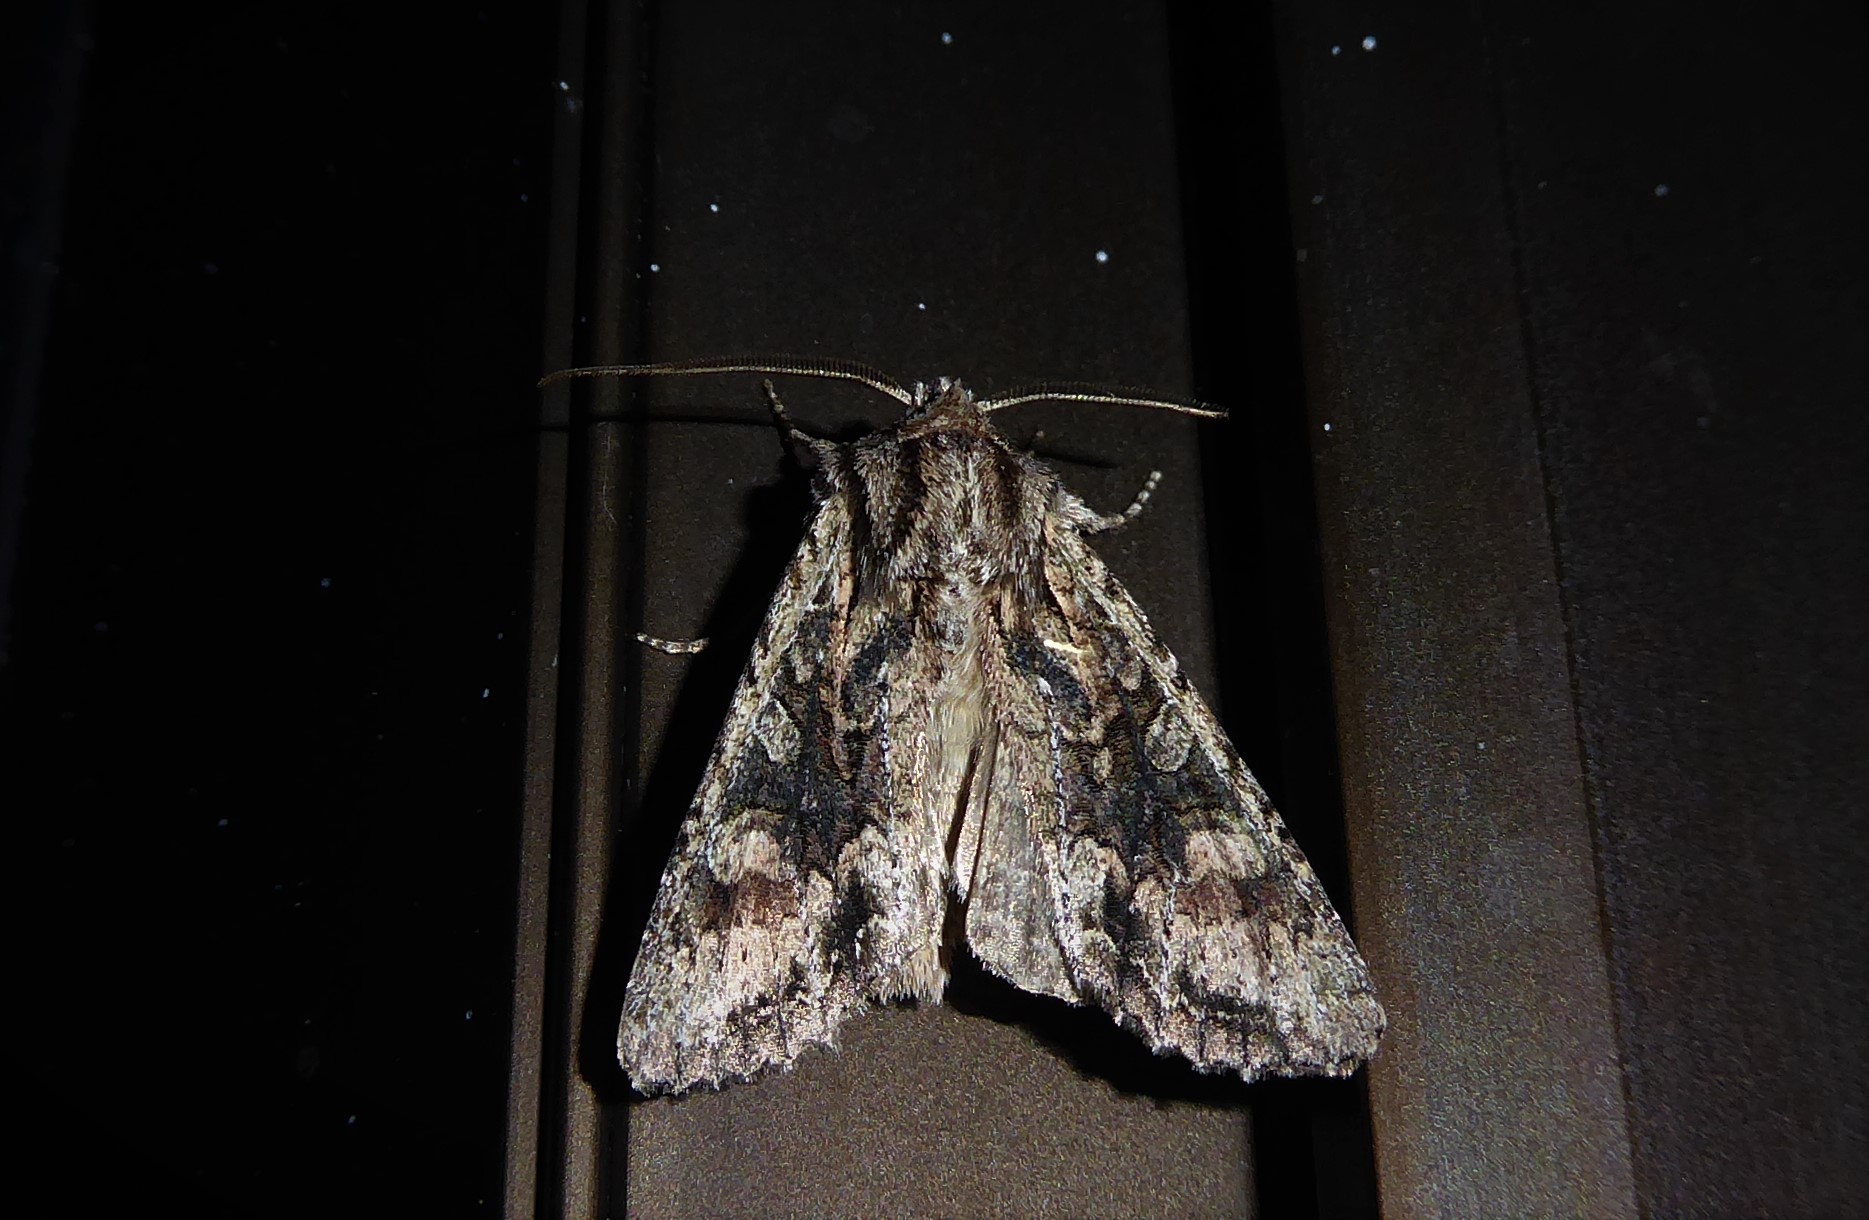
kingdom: Animalia
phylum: Arthropoda
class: Insecta
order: Lepidoptera
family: Noctuidae
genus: Ichneutica
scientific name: Ichneutica mutans
